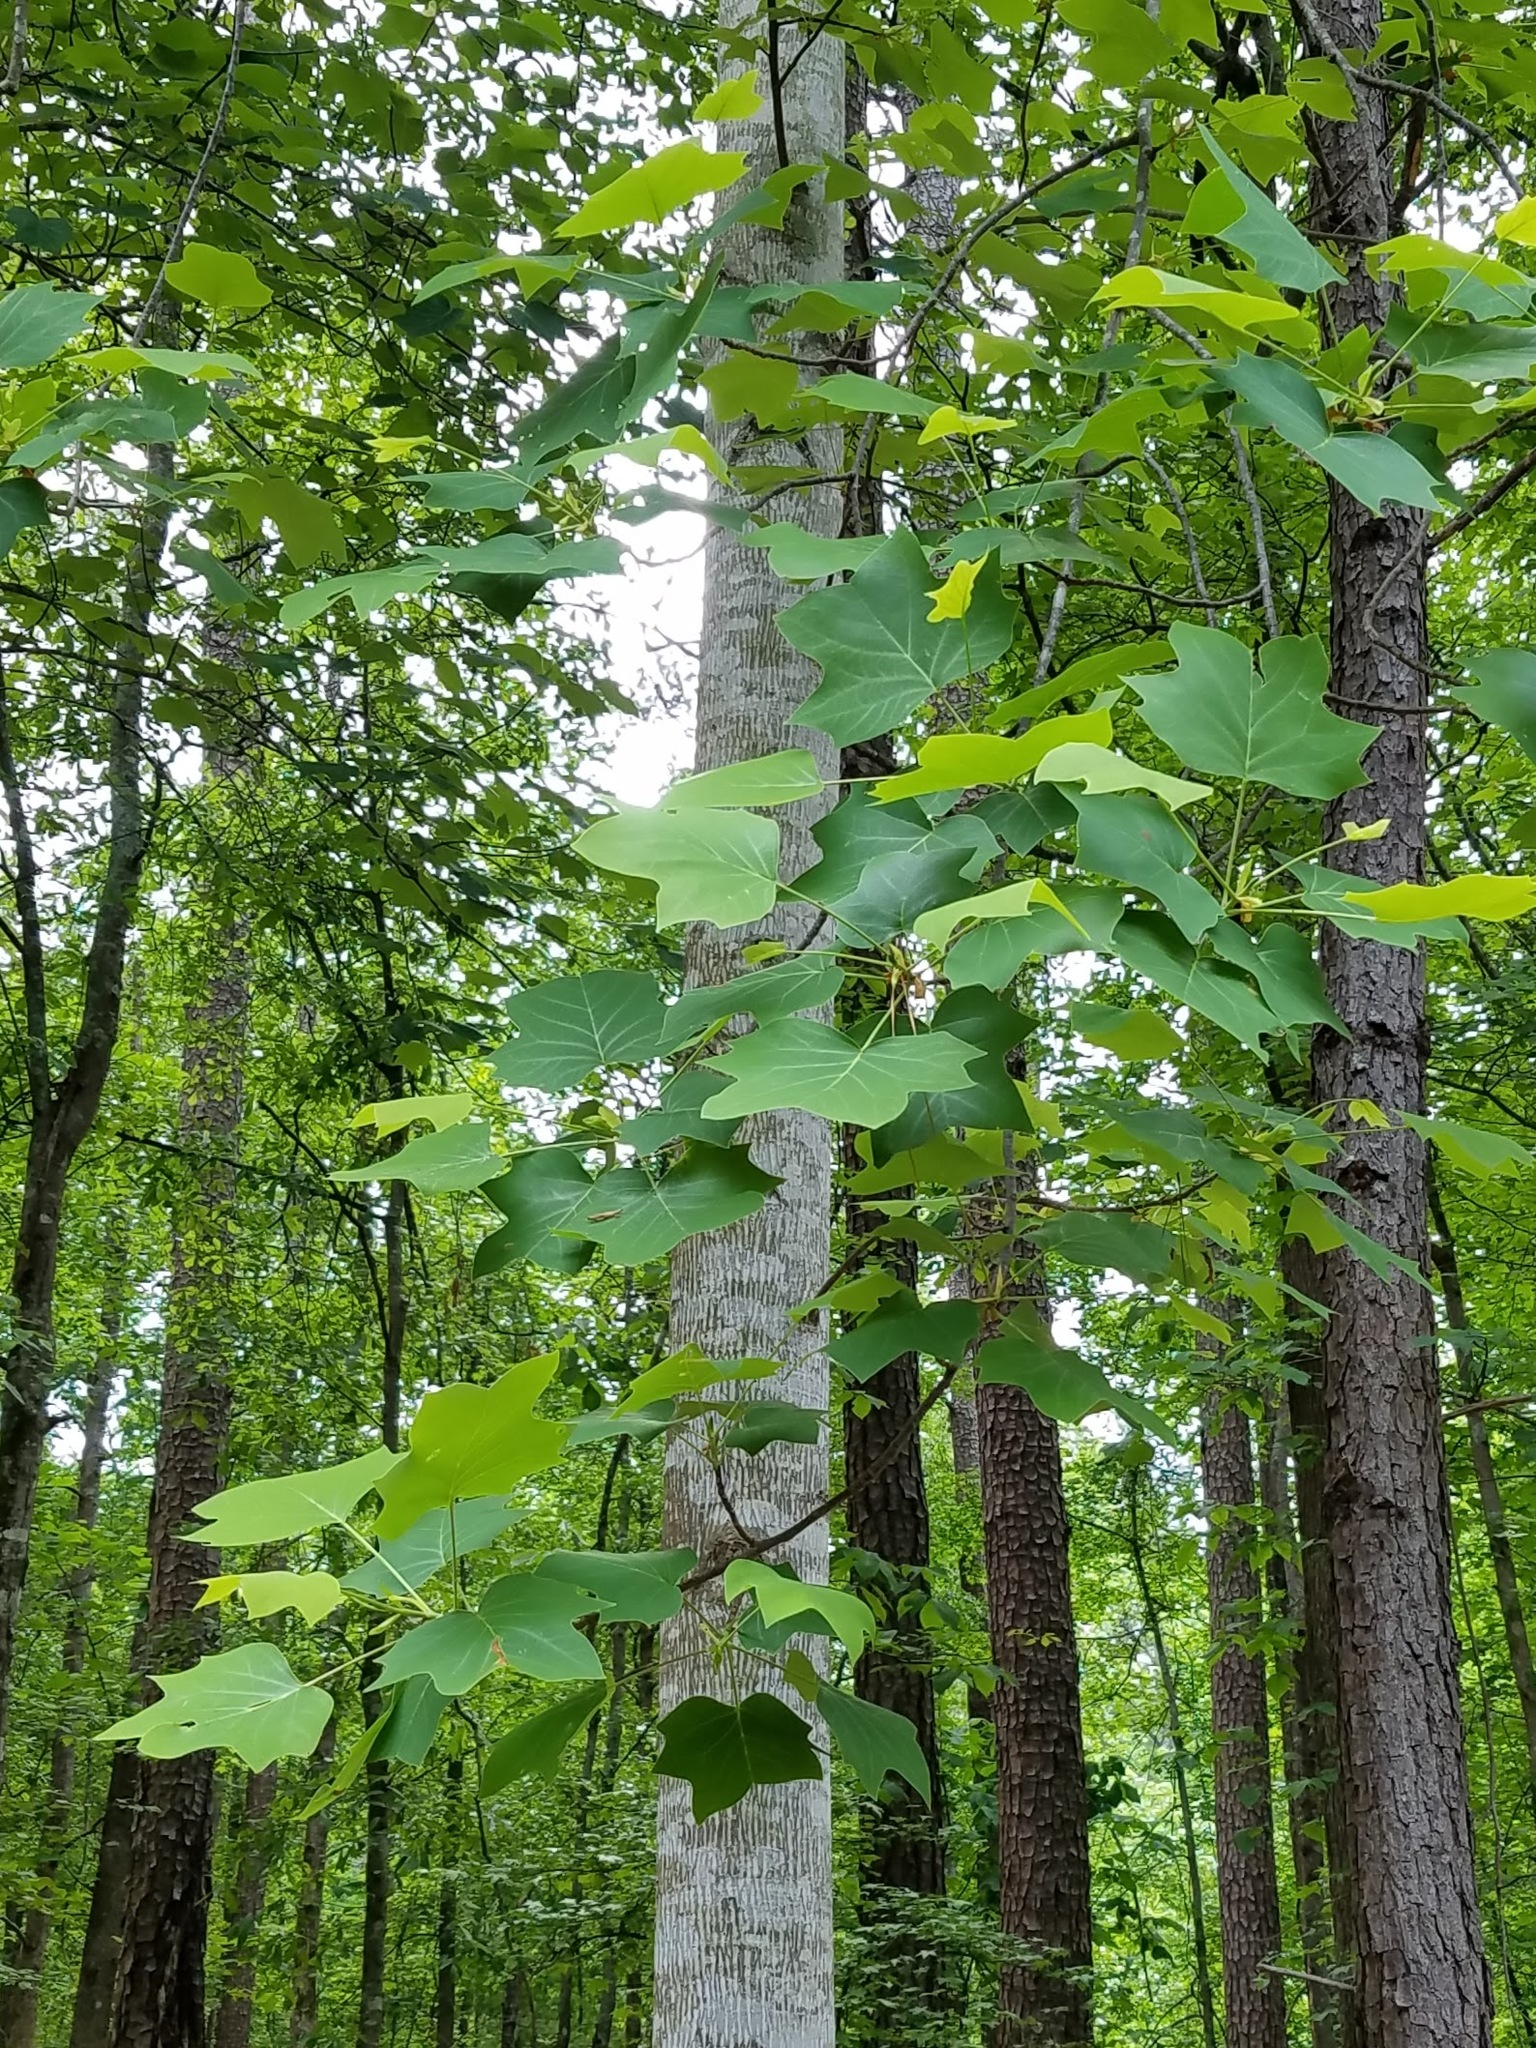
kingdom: Plantae
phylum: Tracheophyta
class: Magnoliopsida
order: Magnoliales
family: Magnoliaceae
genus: Liriodendron
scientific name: Liriodendron tulipifera
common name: Tulip tree
